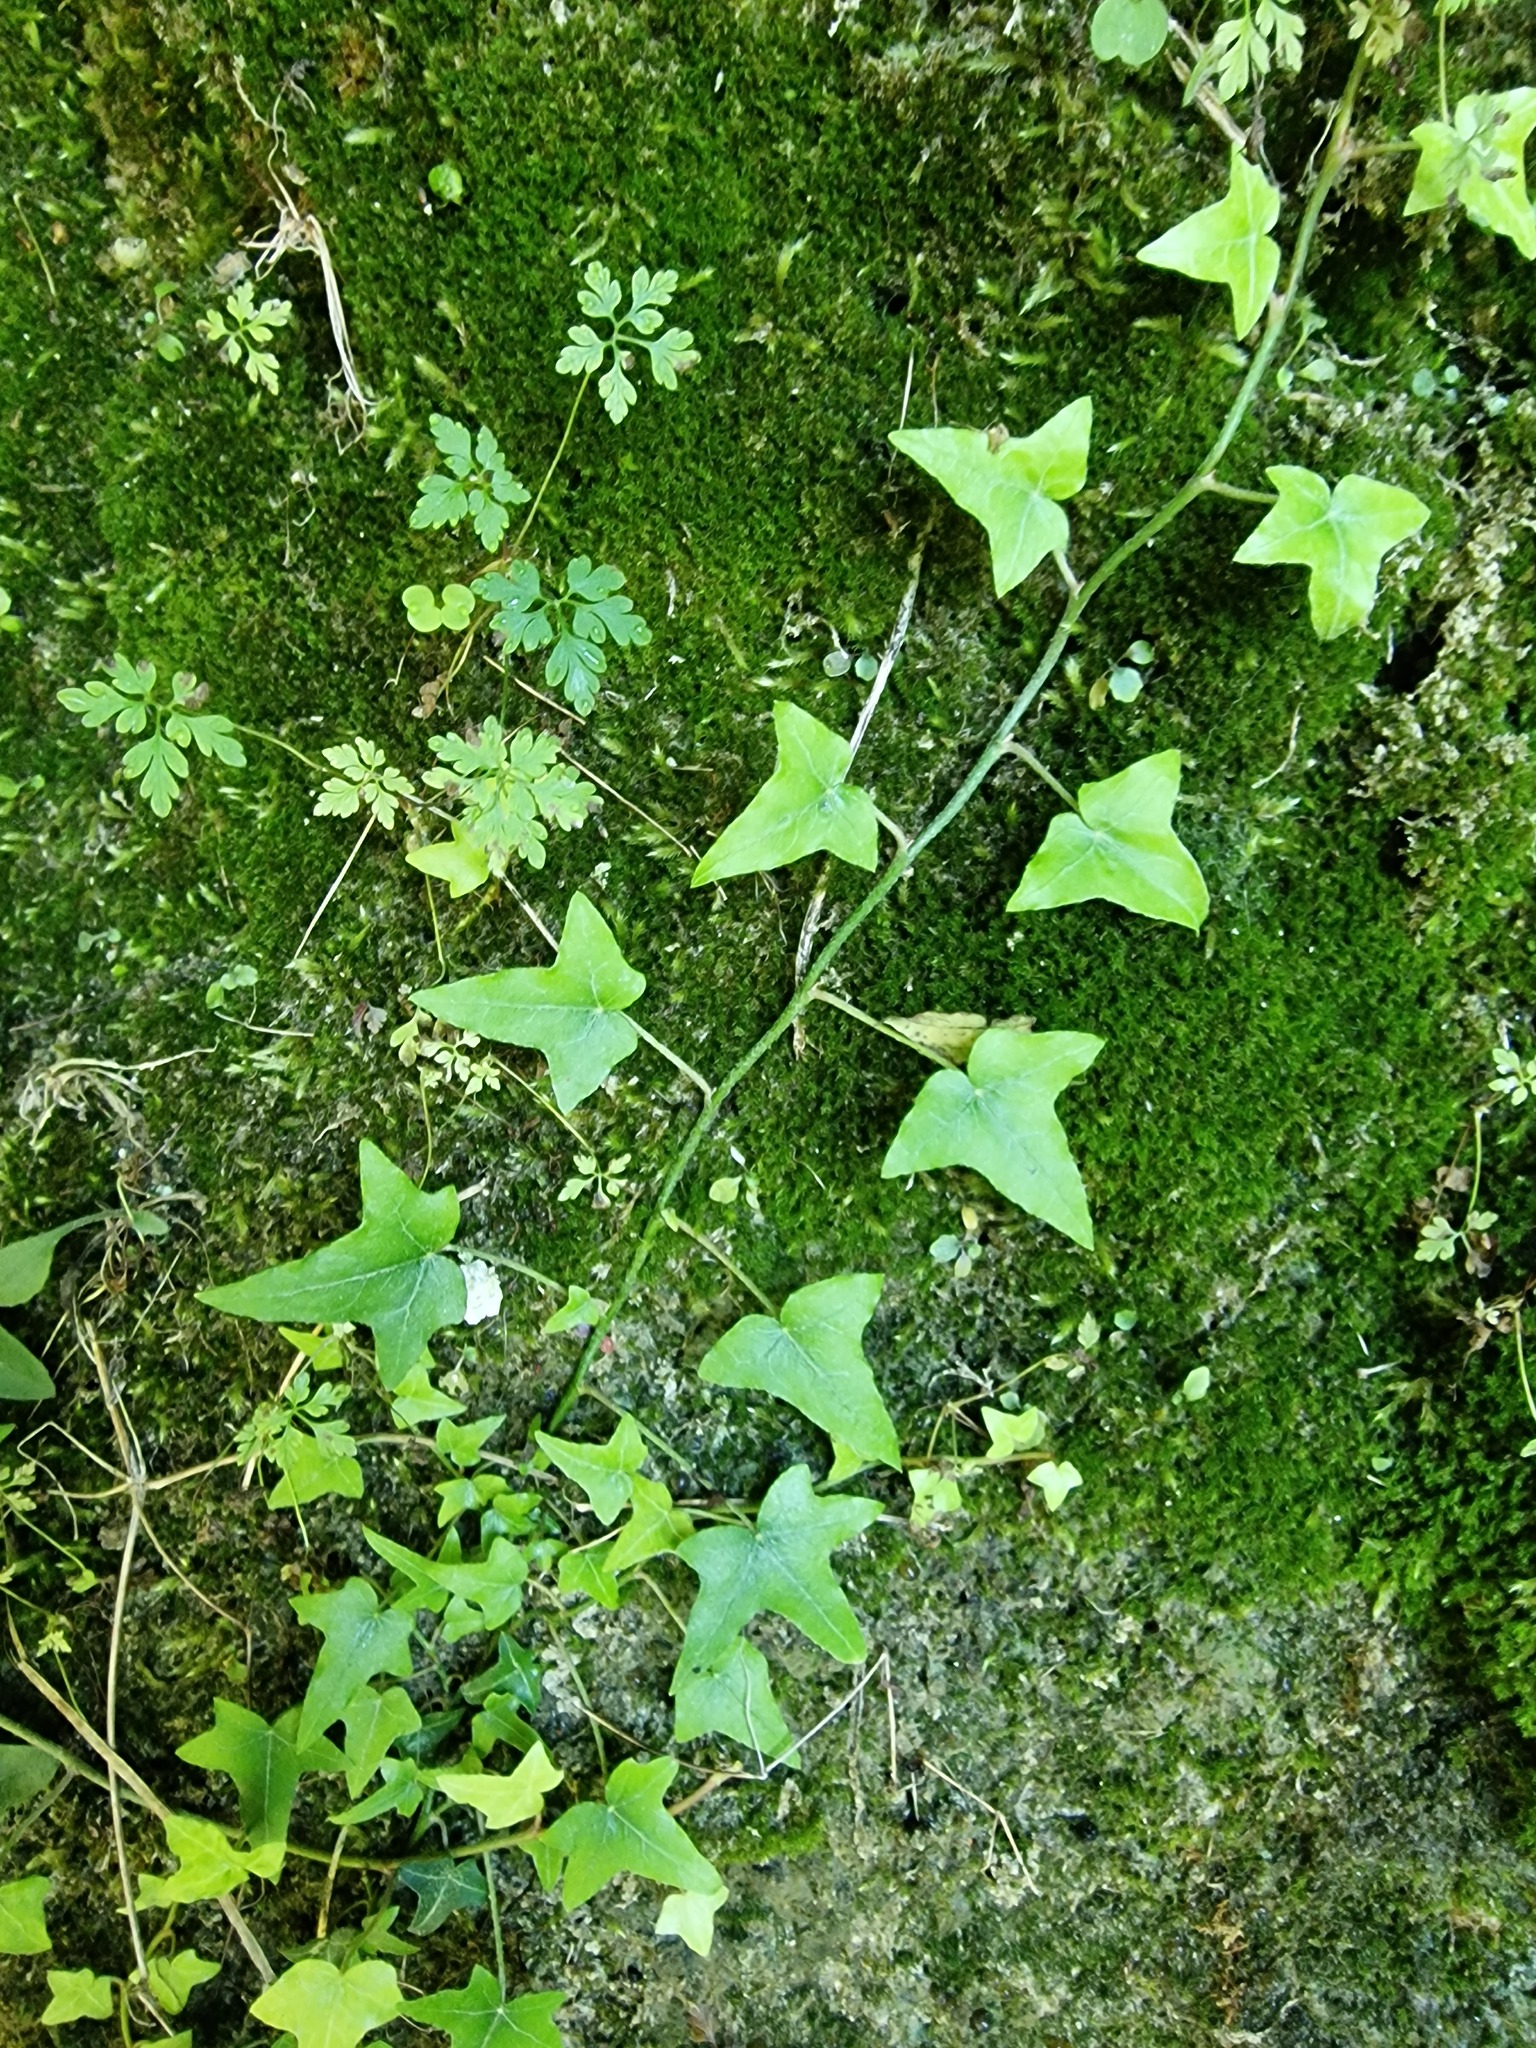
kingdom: Plantae
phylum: Tracheophyta
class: Magnoliopsida
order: Cucurbitales
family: Cucurbitaceae
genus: Echinocystis
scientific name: Echinocystis lobata
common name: Wild cucumber
